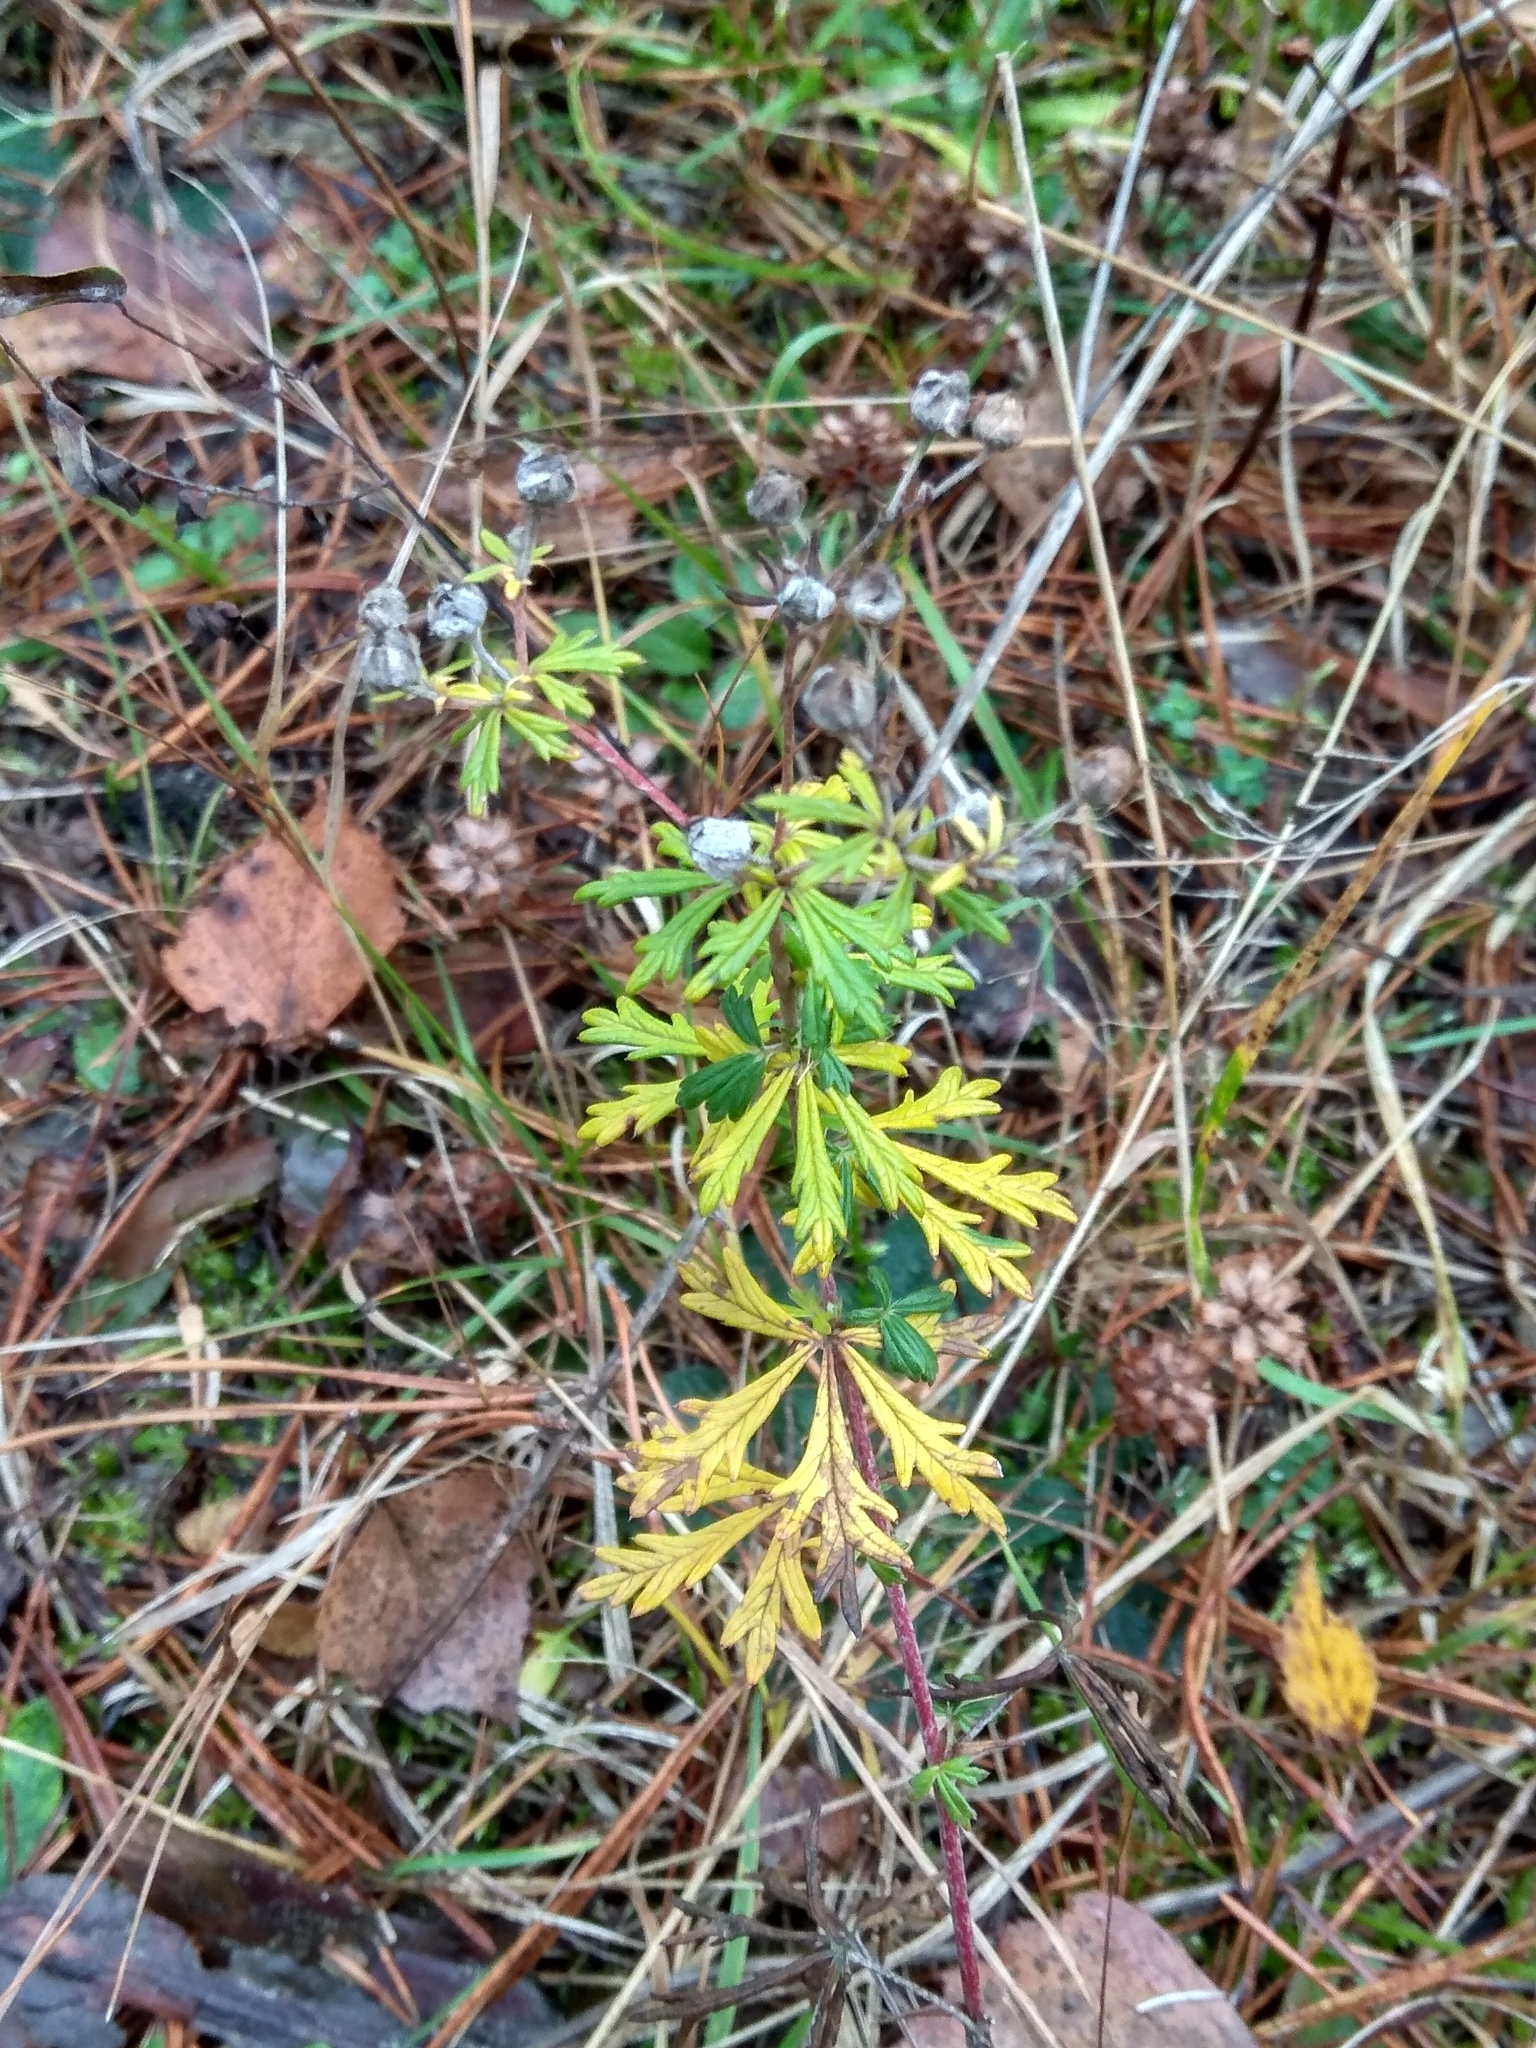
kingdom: Plantae
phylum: Tracheophyta
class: Magnoliopsida
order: Rosales
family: Rosaceae
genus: Potentilla
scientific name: Potentilla argentea
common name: Hoary cinquefoil
